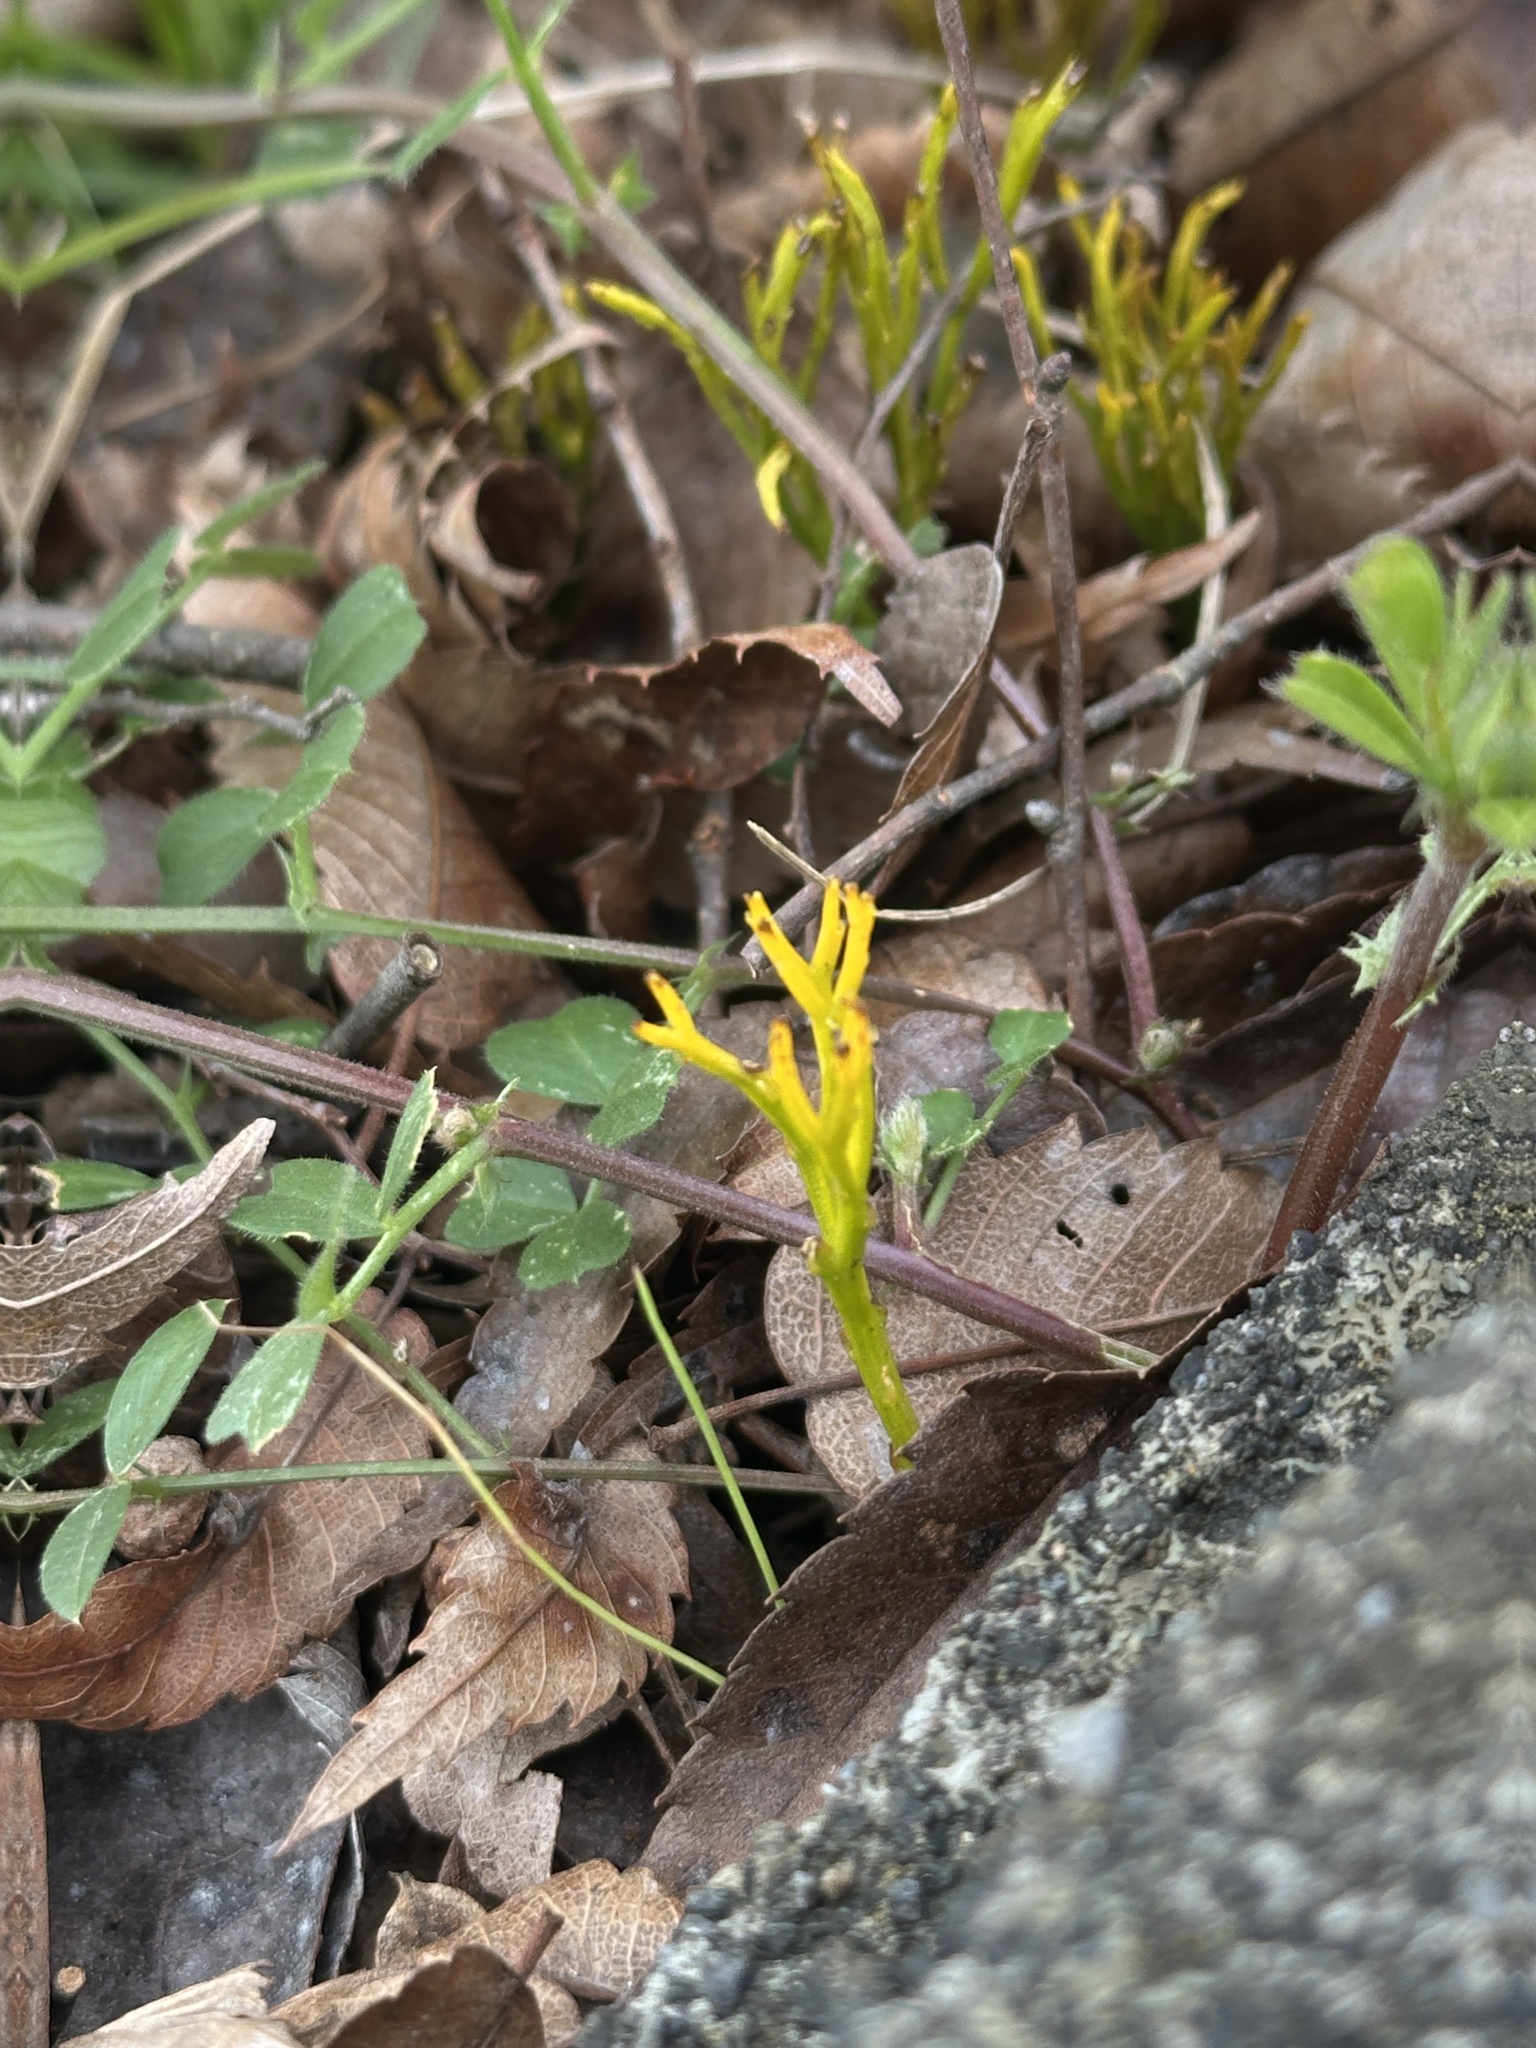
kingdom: Plantae
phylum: Tracheophyta
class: Polypodiopsida
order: Psilotales
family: Psilotaceae
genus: Psilotum
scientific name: Psilotum nudum
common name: Skeleton fork fern
